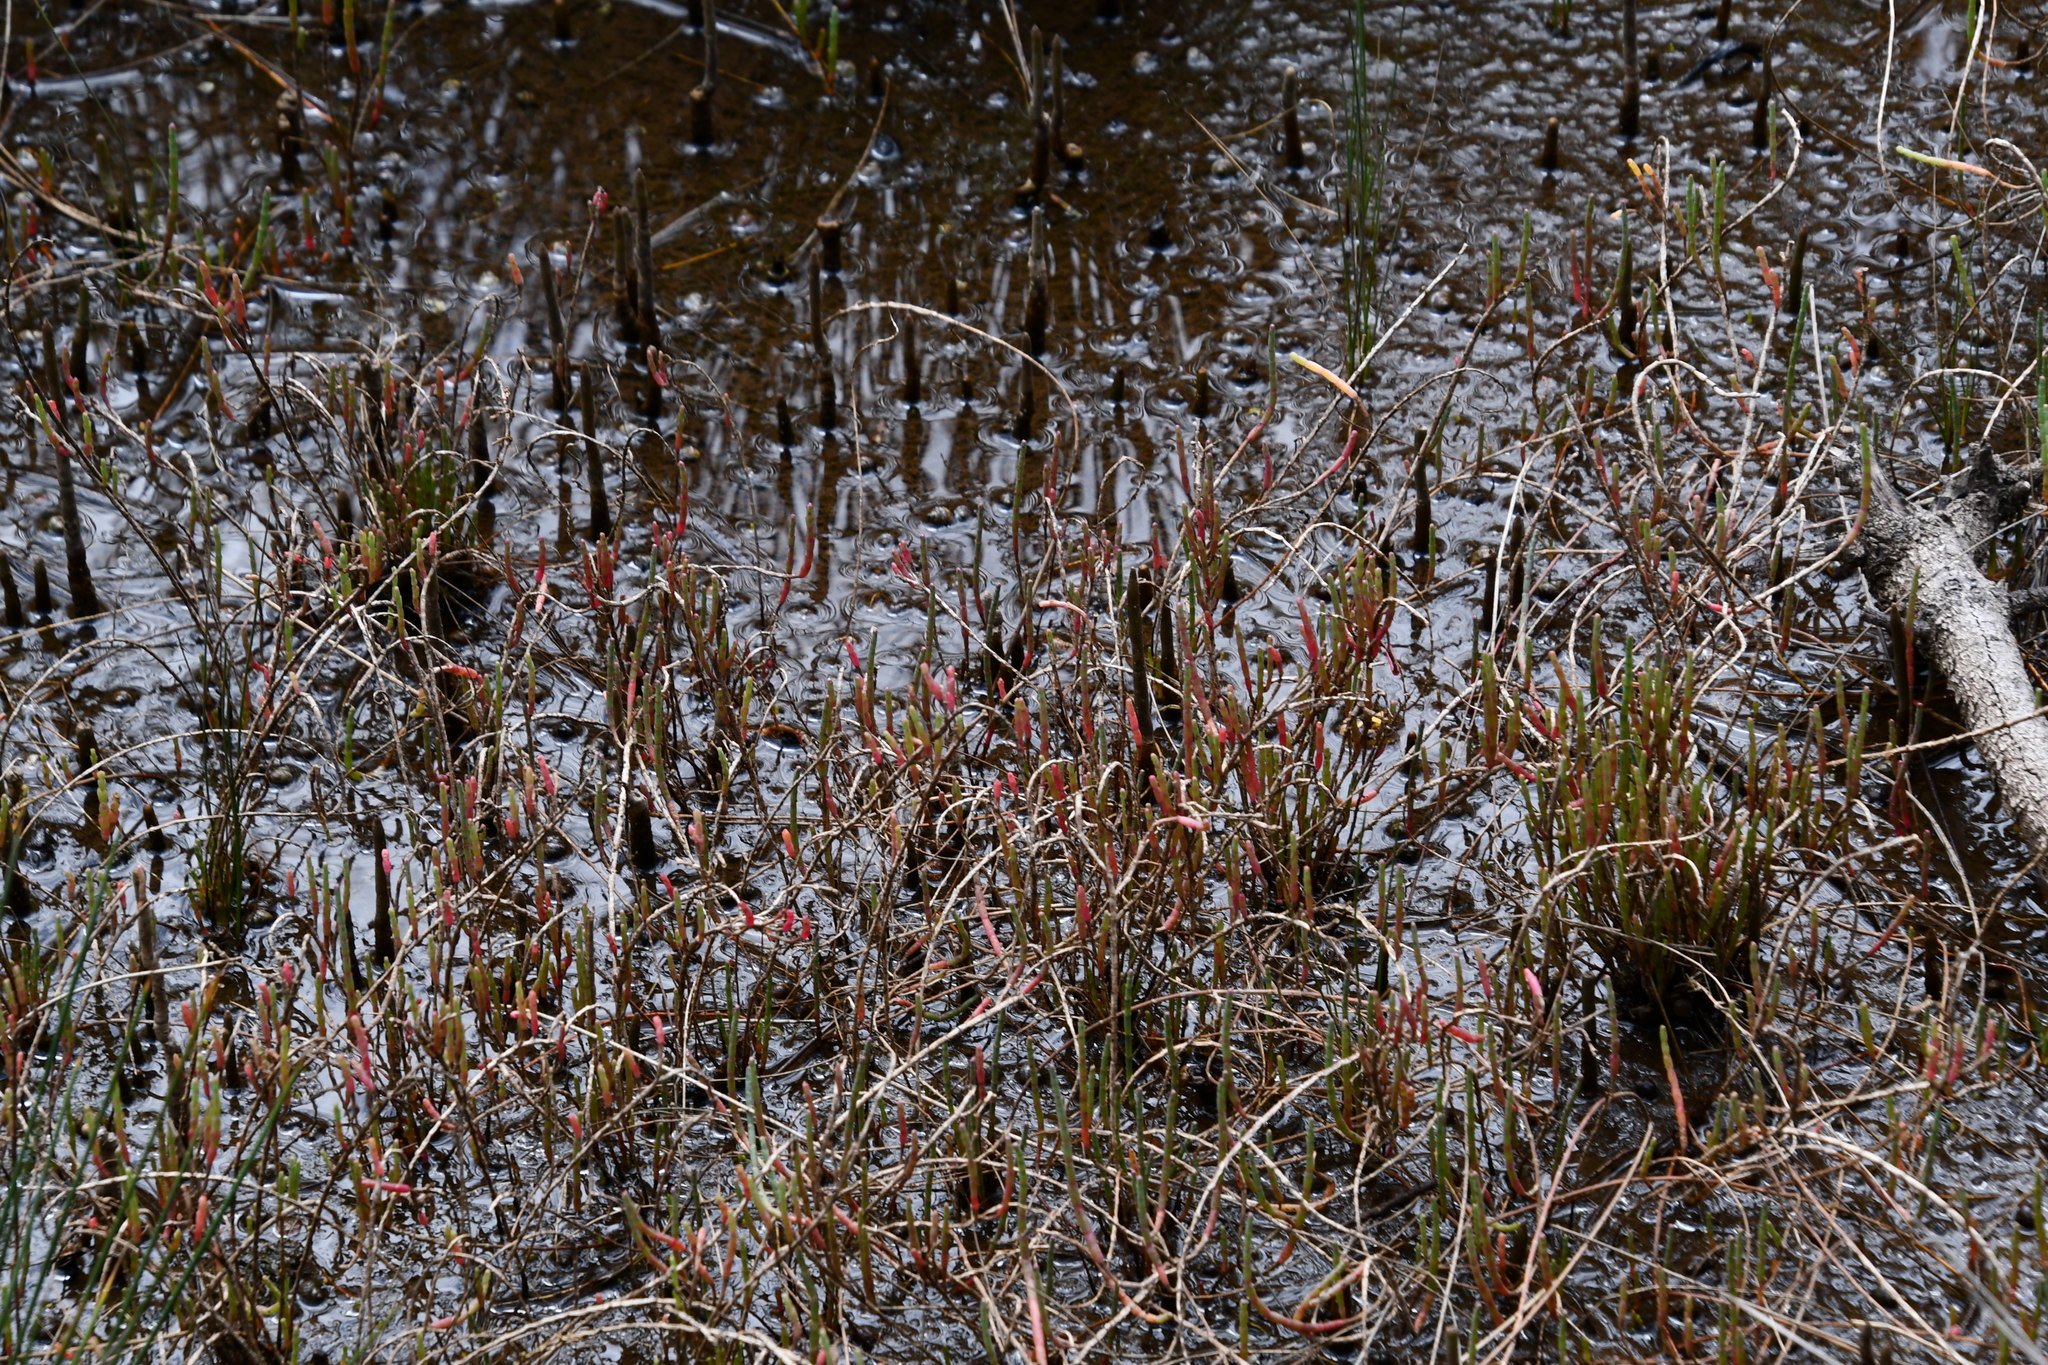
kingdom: Plantae
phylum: Tracheophyta
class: Magnoliopsida
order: Caryophyllales
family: Amaranthaceae
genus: Salicornia
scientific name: Salicornia quinqueflora
